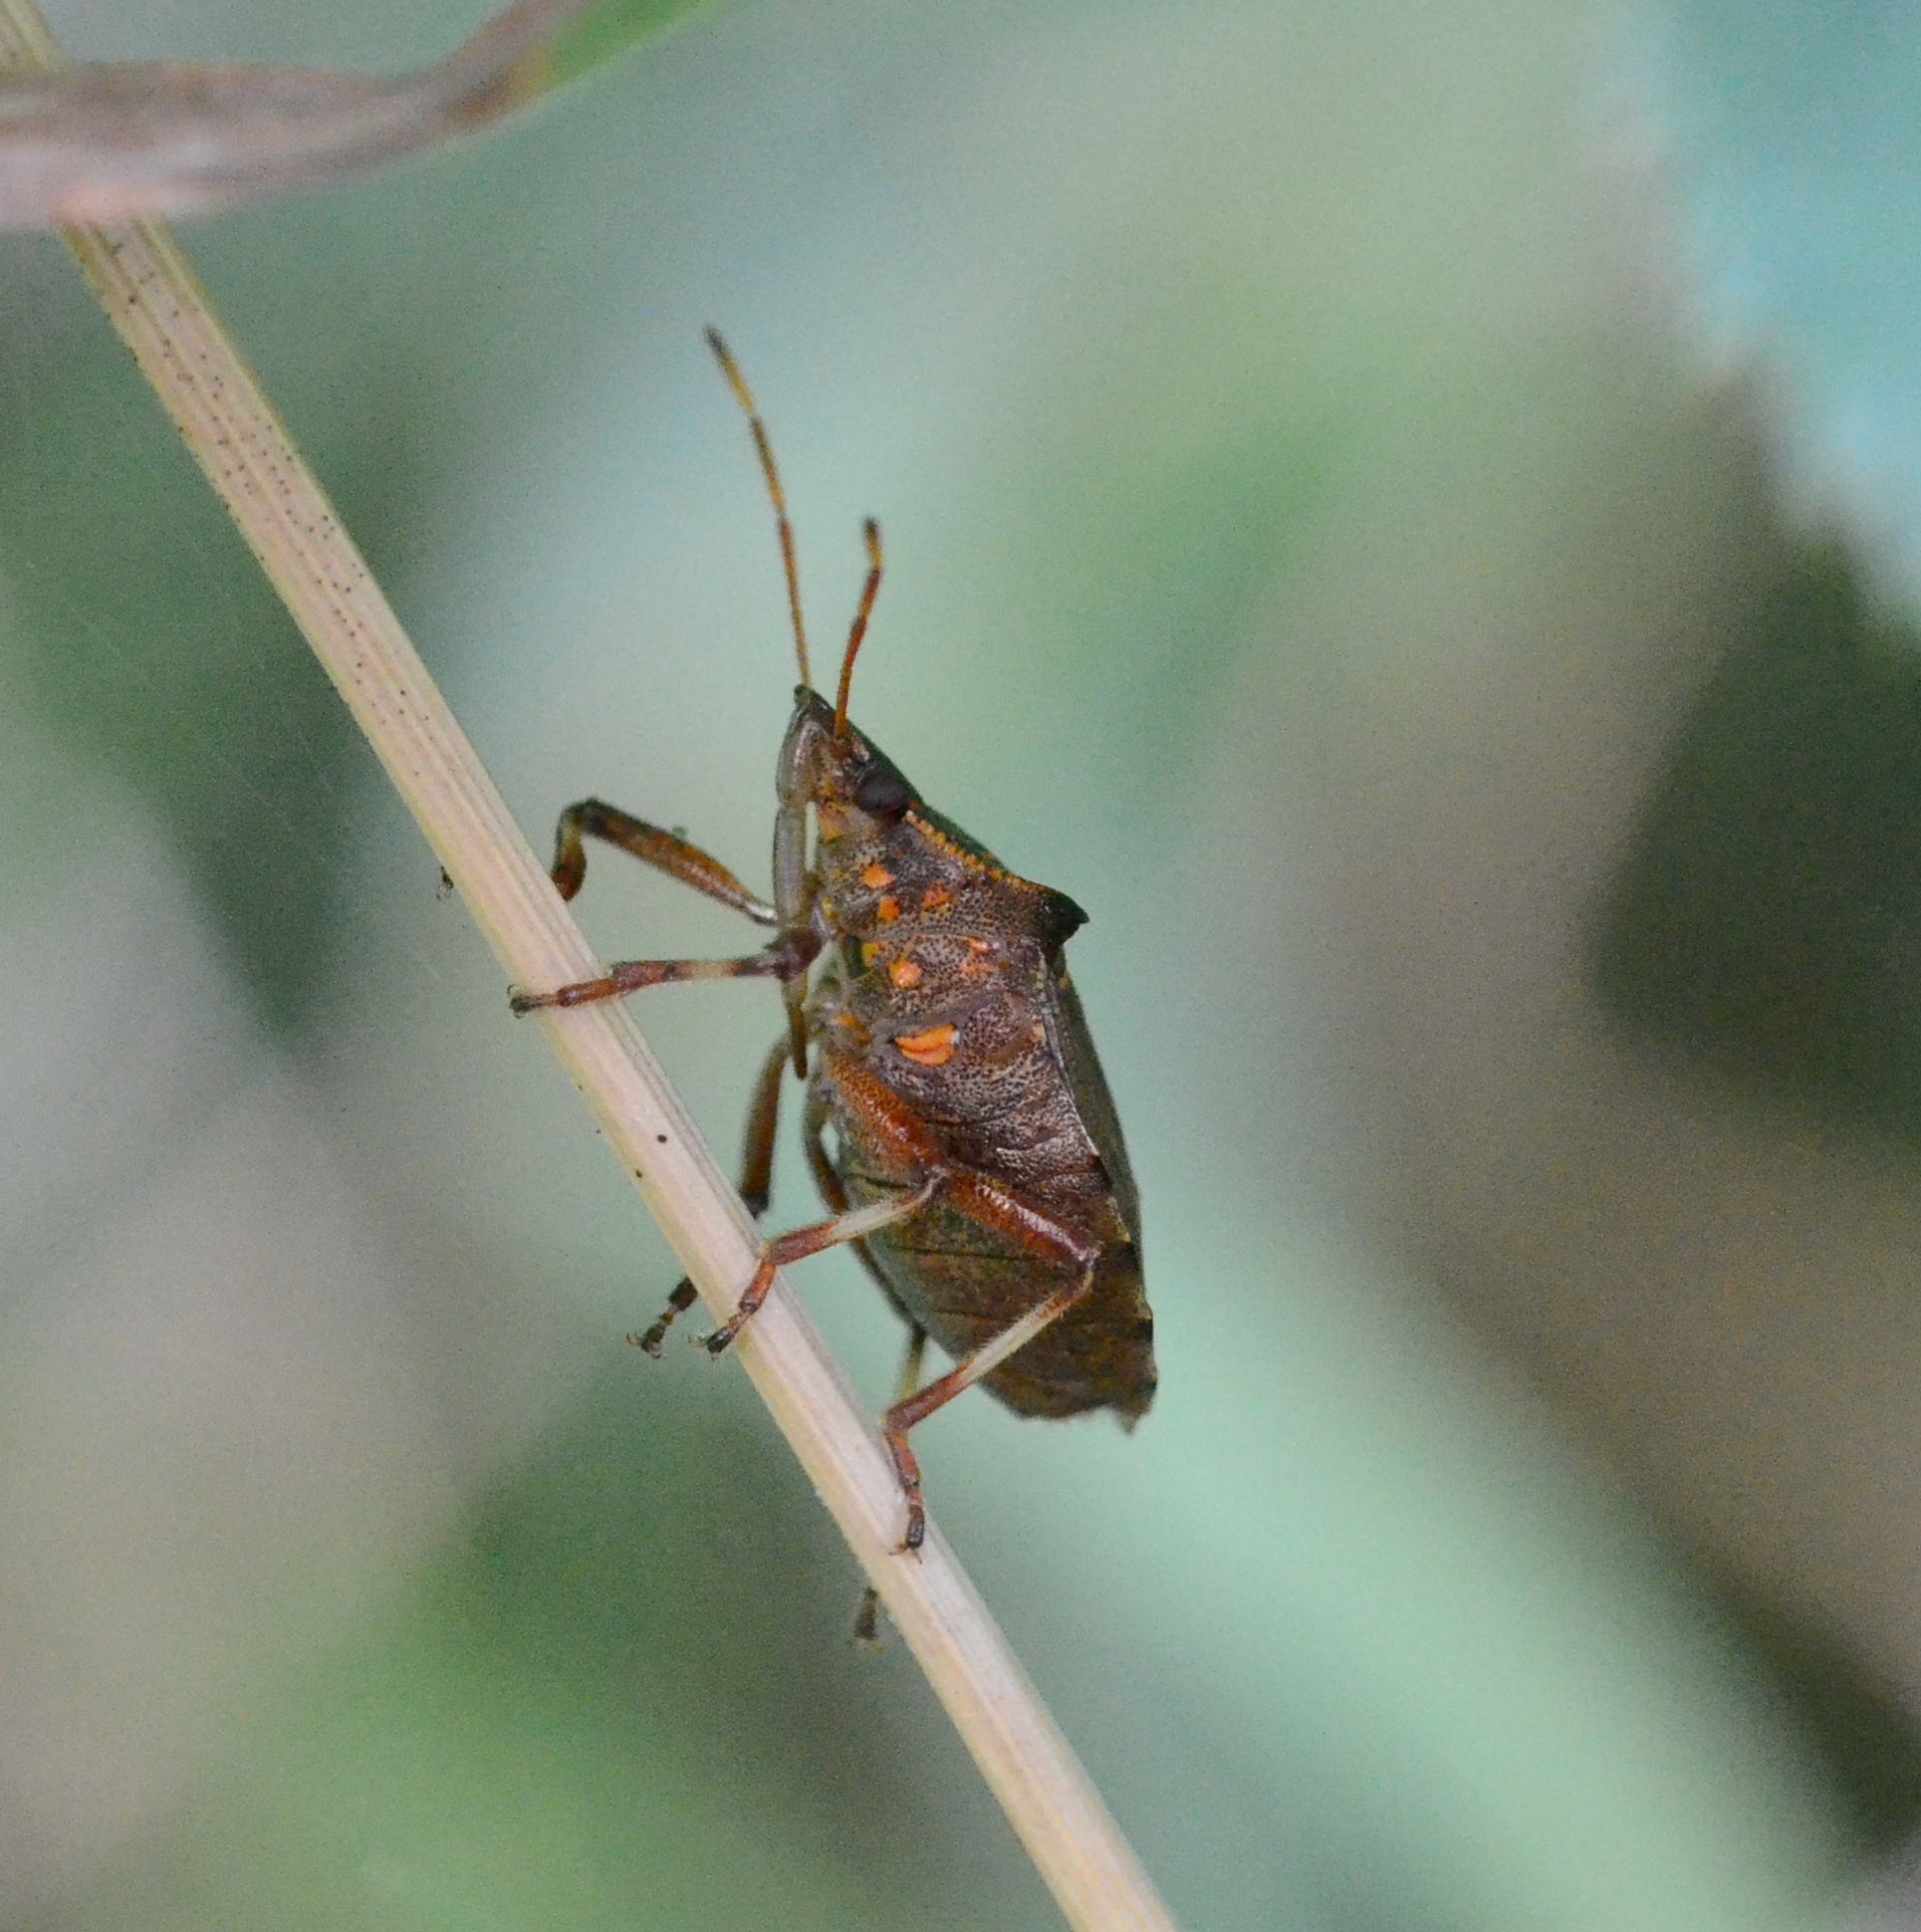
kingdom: Animalia
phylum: Arthropoda
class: Insecta
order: Hemiptera
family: Pentatomidae
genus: Picromerus
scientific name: Picromerus bidens
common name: Spiked shieldbug
